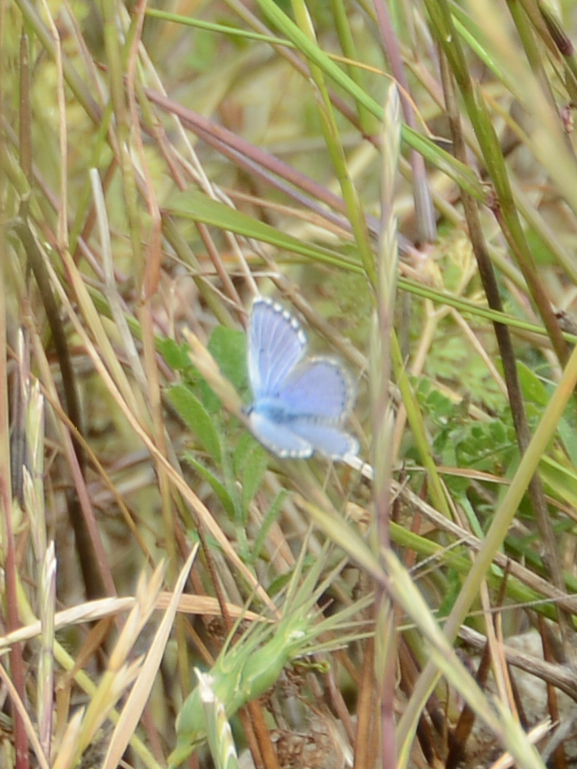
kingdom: Animalia
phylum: Arthropoda
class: Insecta
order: Lepidoptera
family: Lycaenidae
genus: Pseudophilotes
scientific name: Pseudophilotes baton
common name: Baton blue
